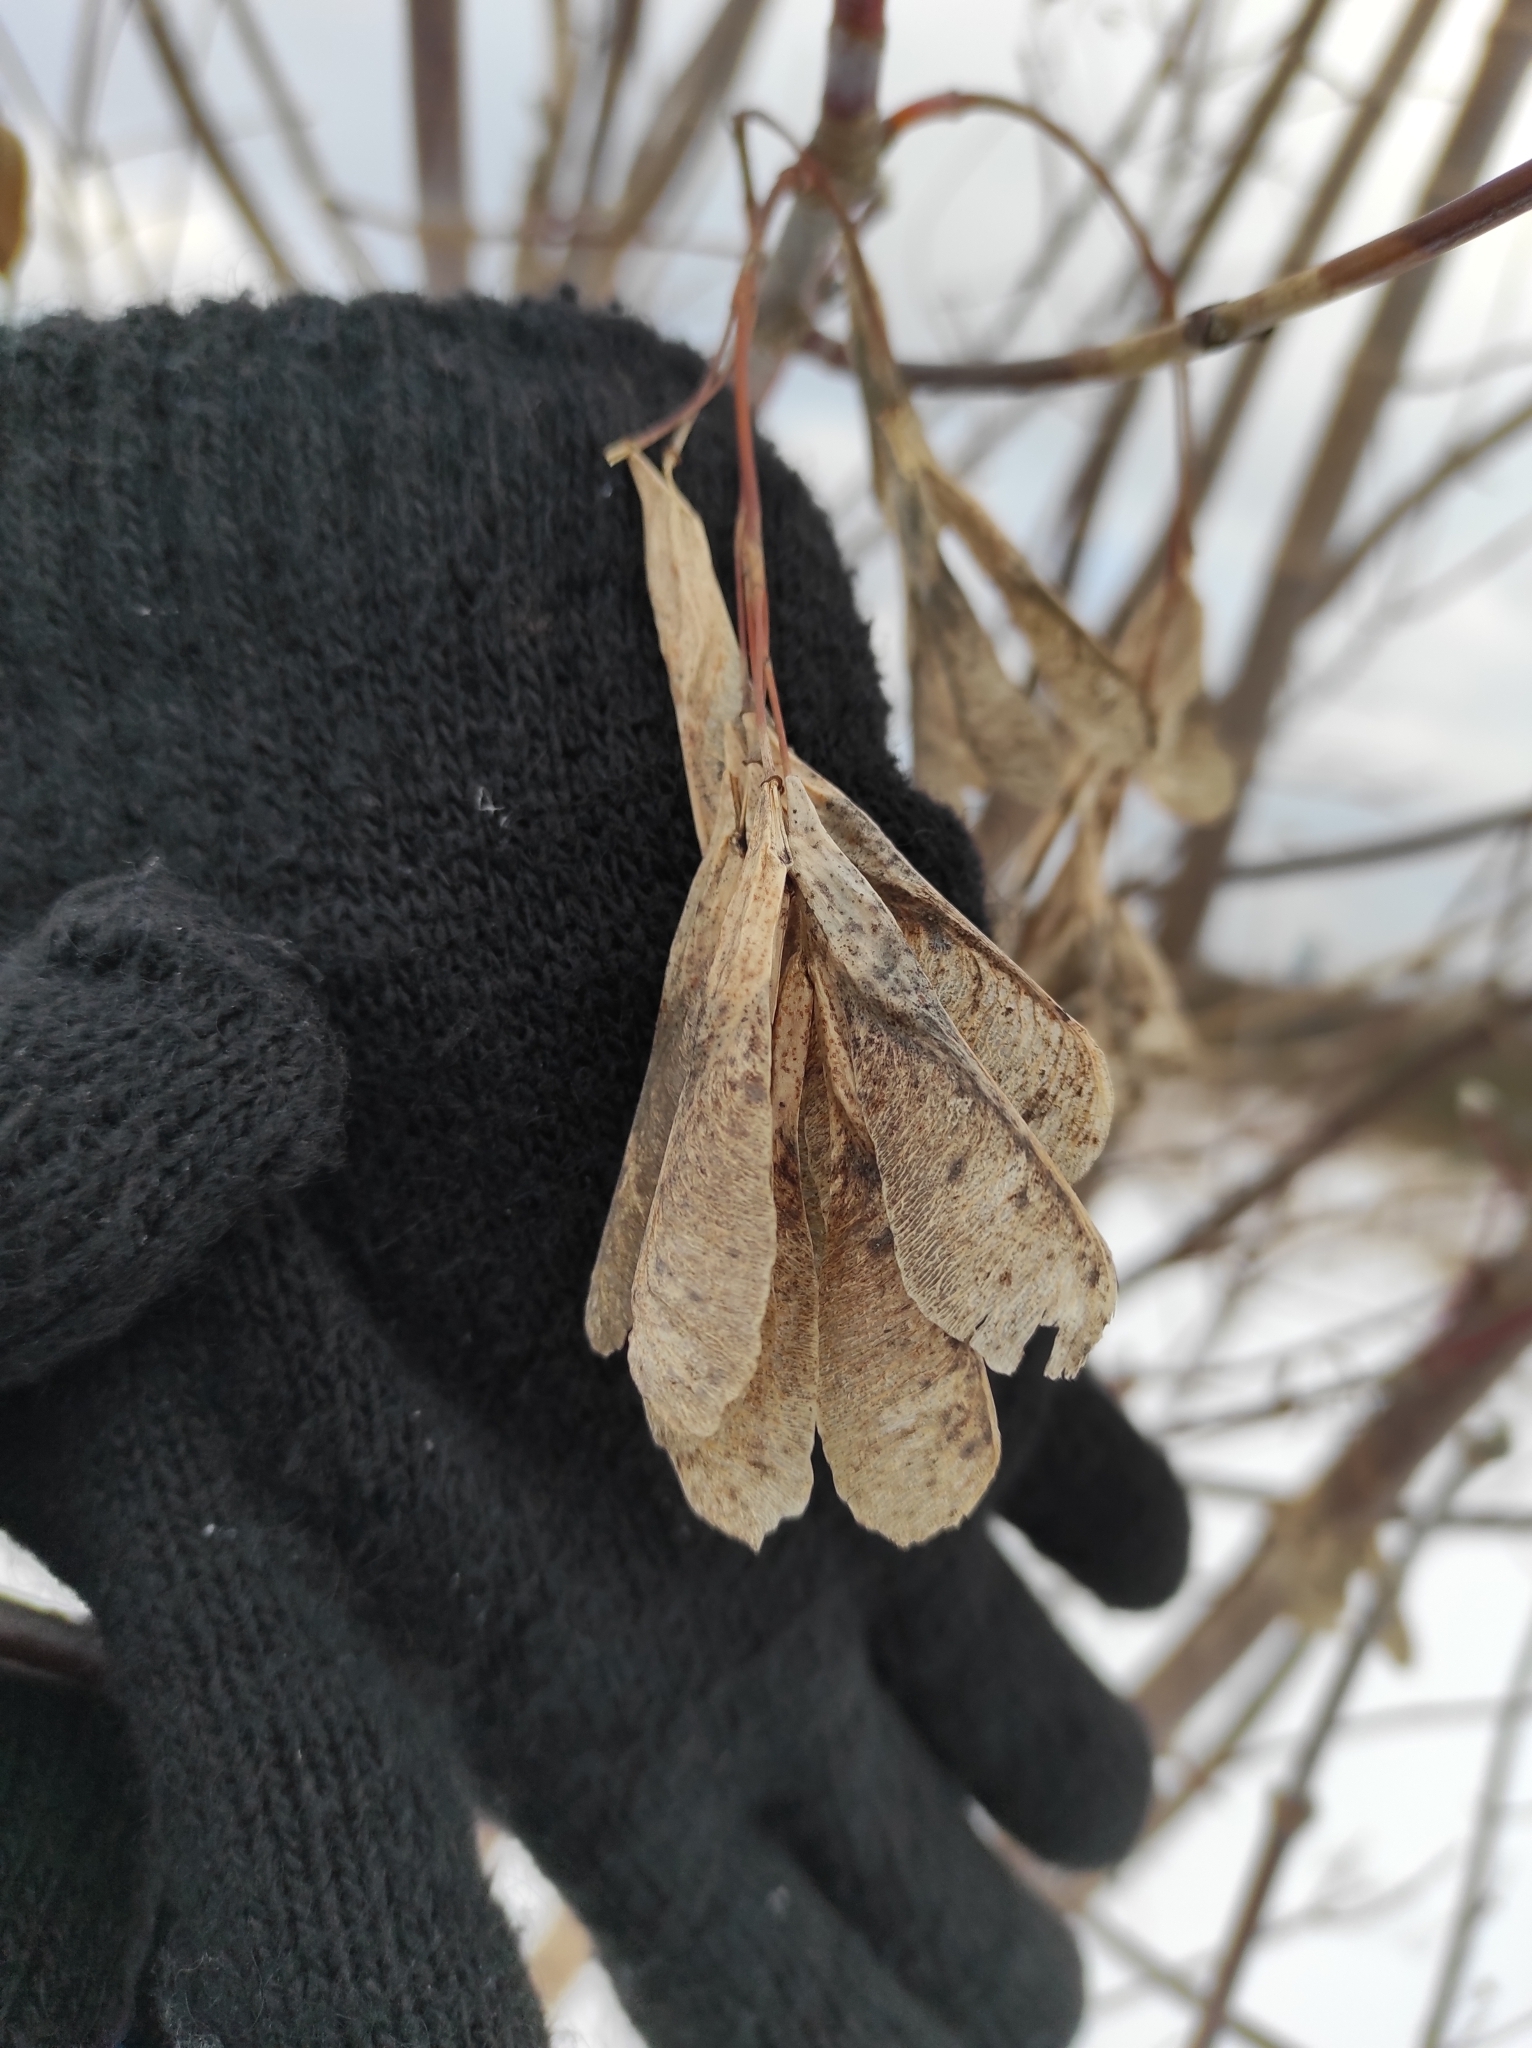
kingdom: Plantae
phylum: Tracheophyta
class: Magnoliopsida
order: Sapindales
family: Sapindaceae
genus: Acer
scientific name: Acer negundo
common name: Ashleaf maple
